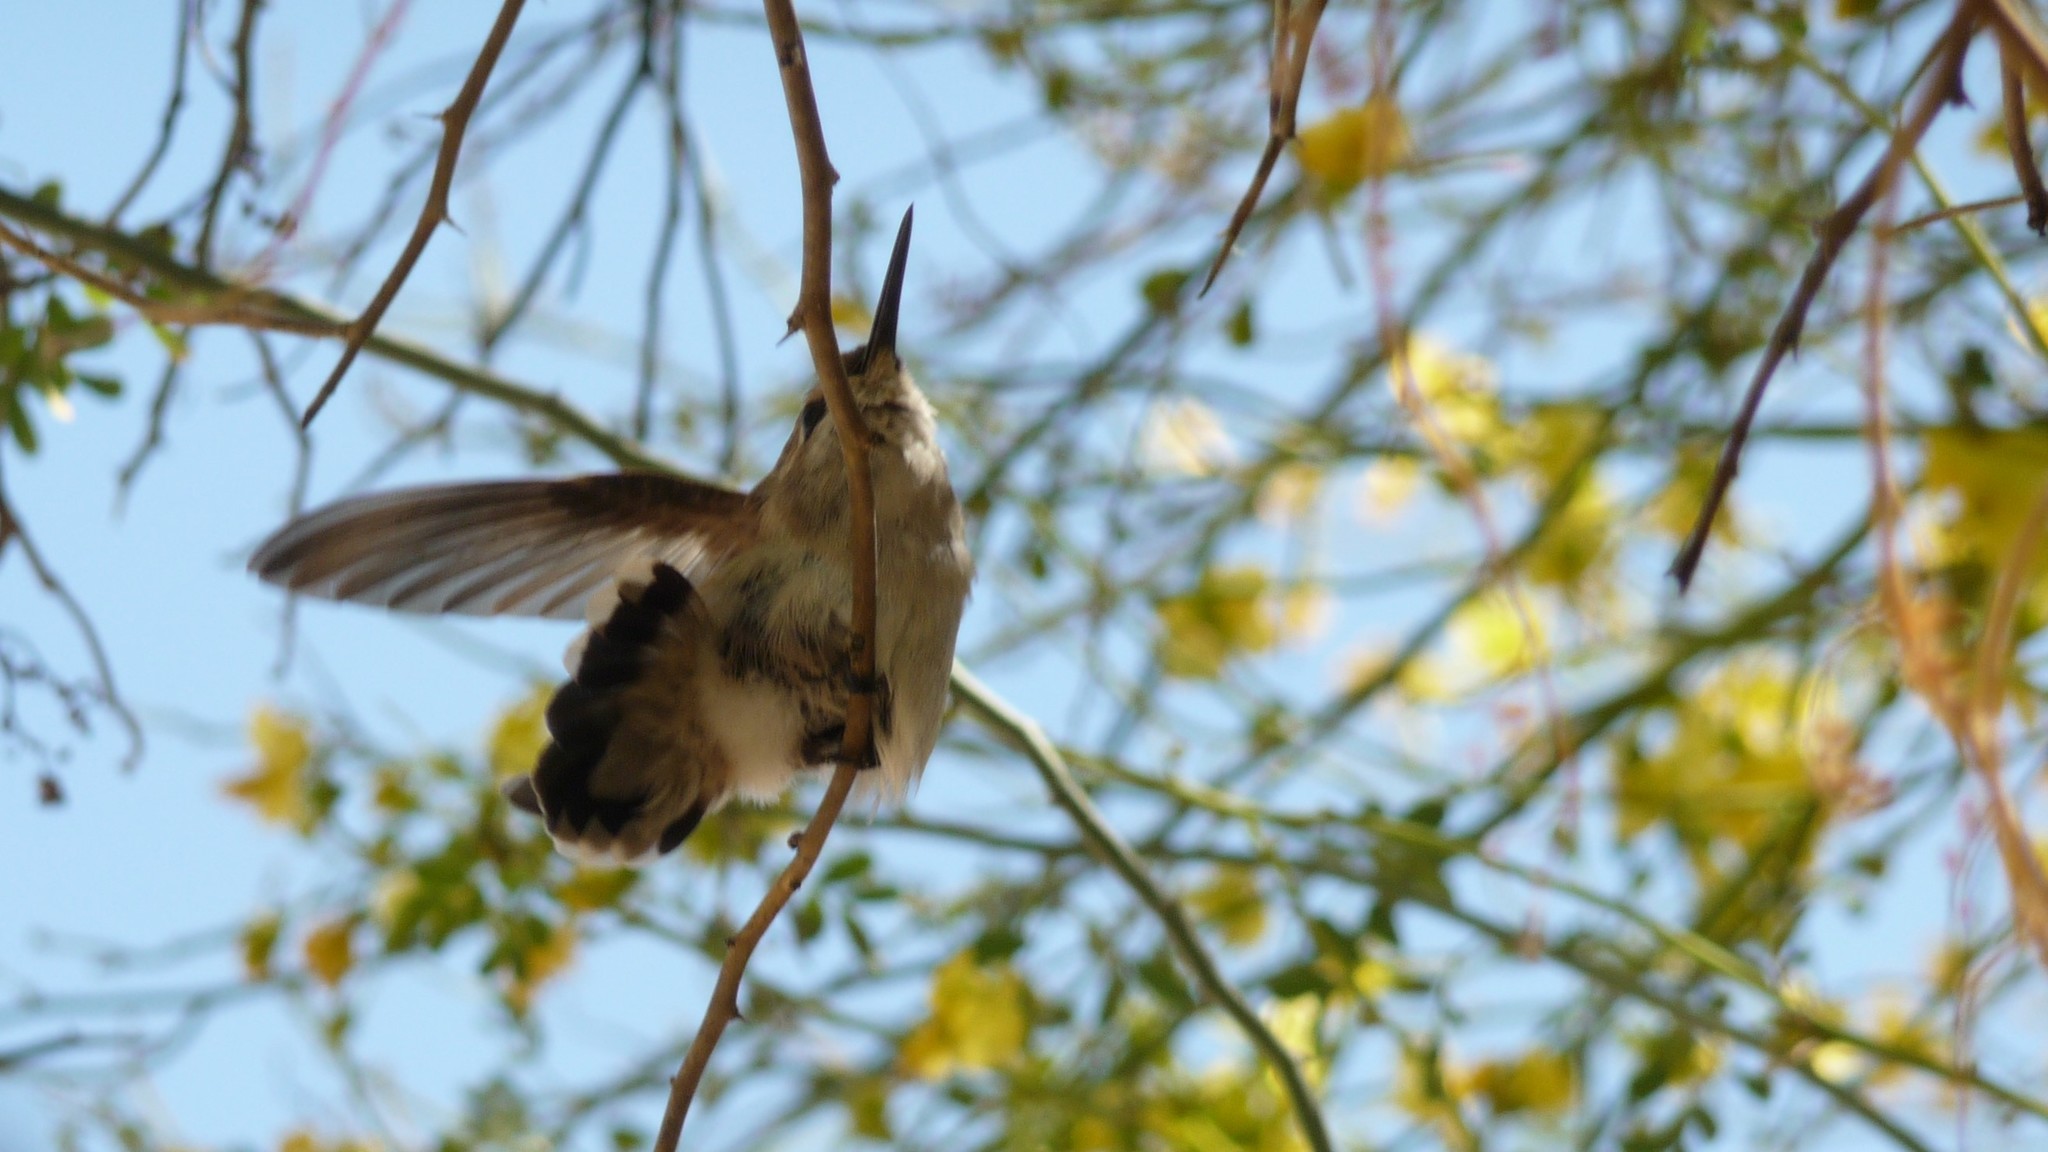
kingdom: Animalia
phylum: Chordata
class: Aves
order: Apodiformes
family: Trochilidae
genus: Calypte
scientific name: Calypte costae
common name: Costa's hummingbird
